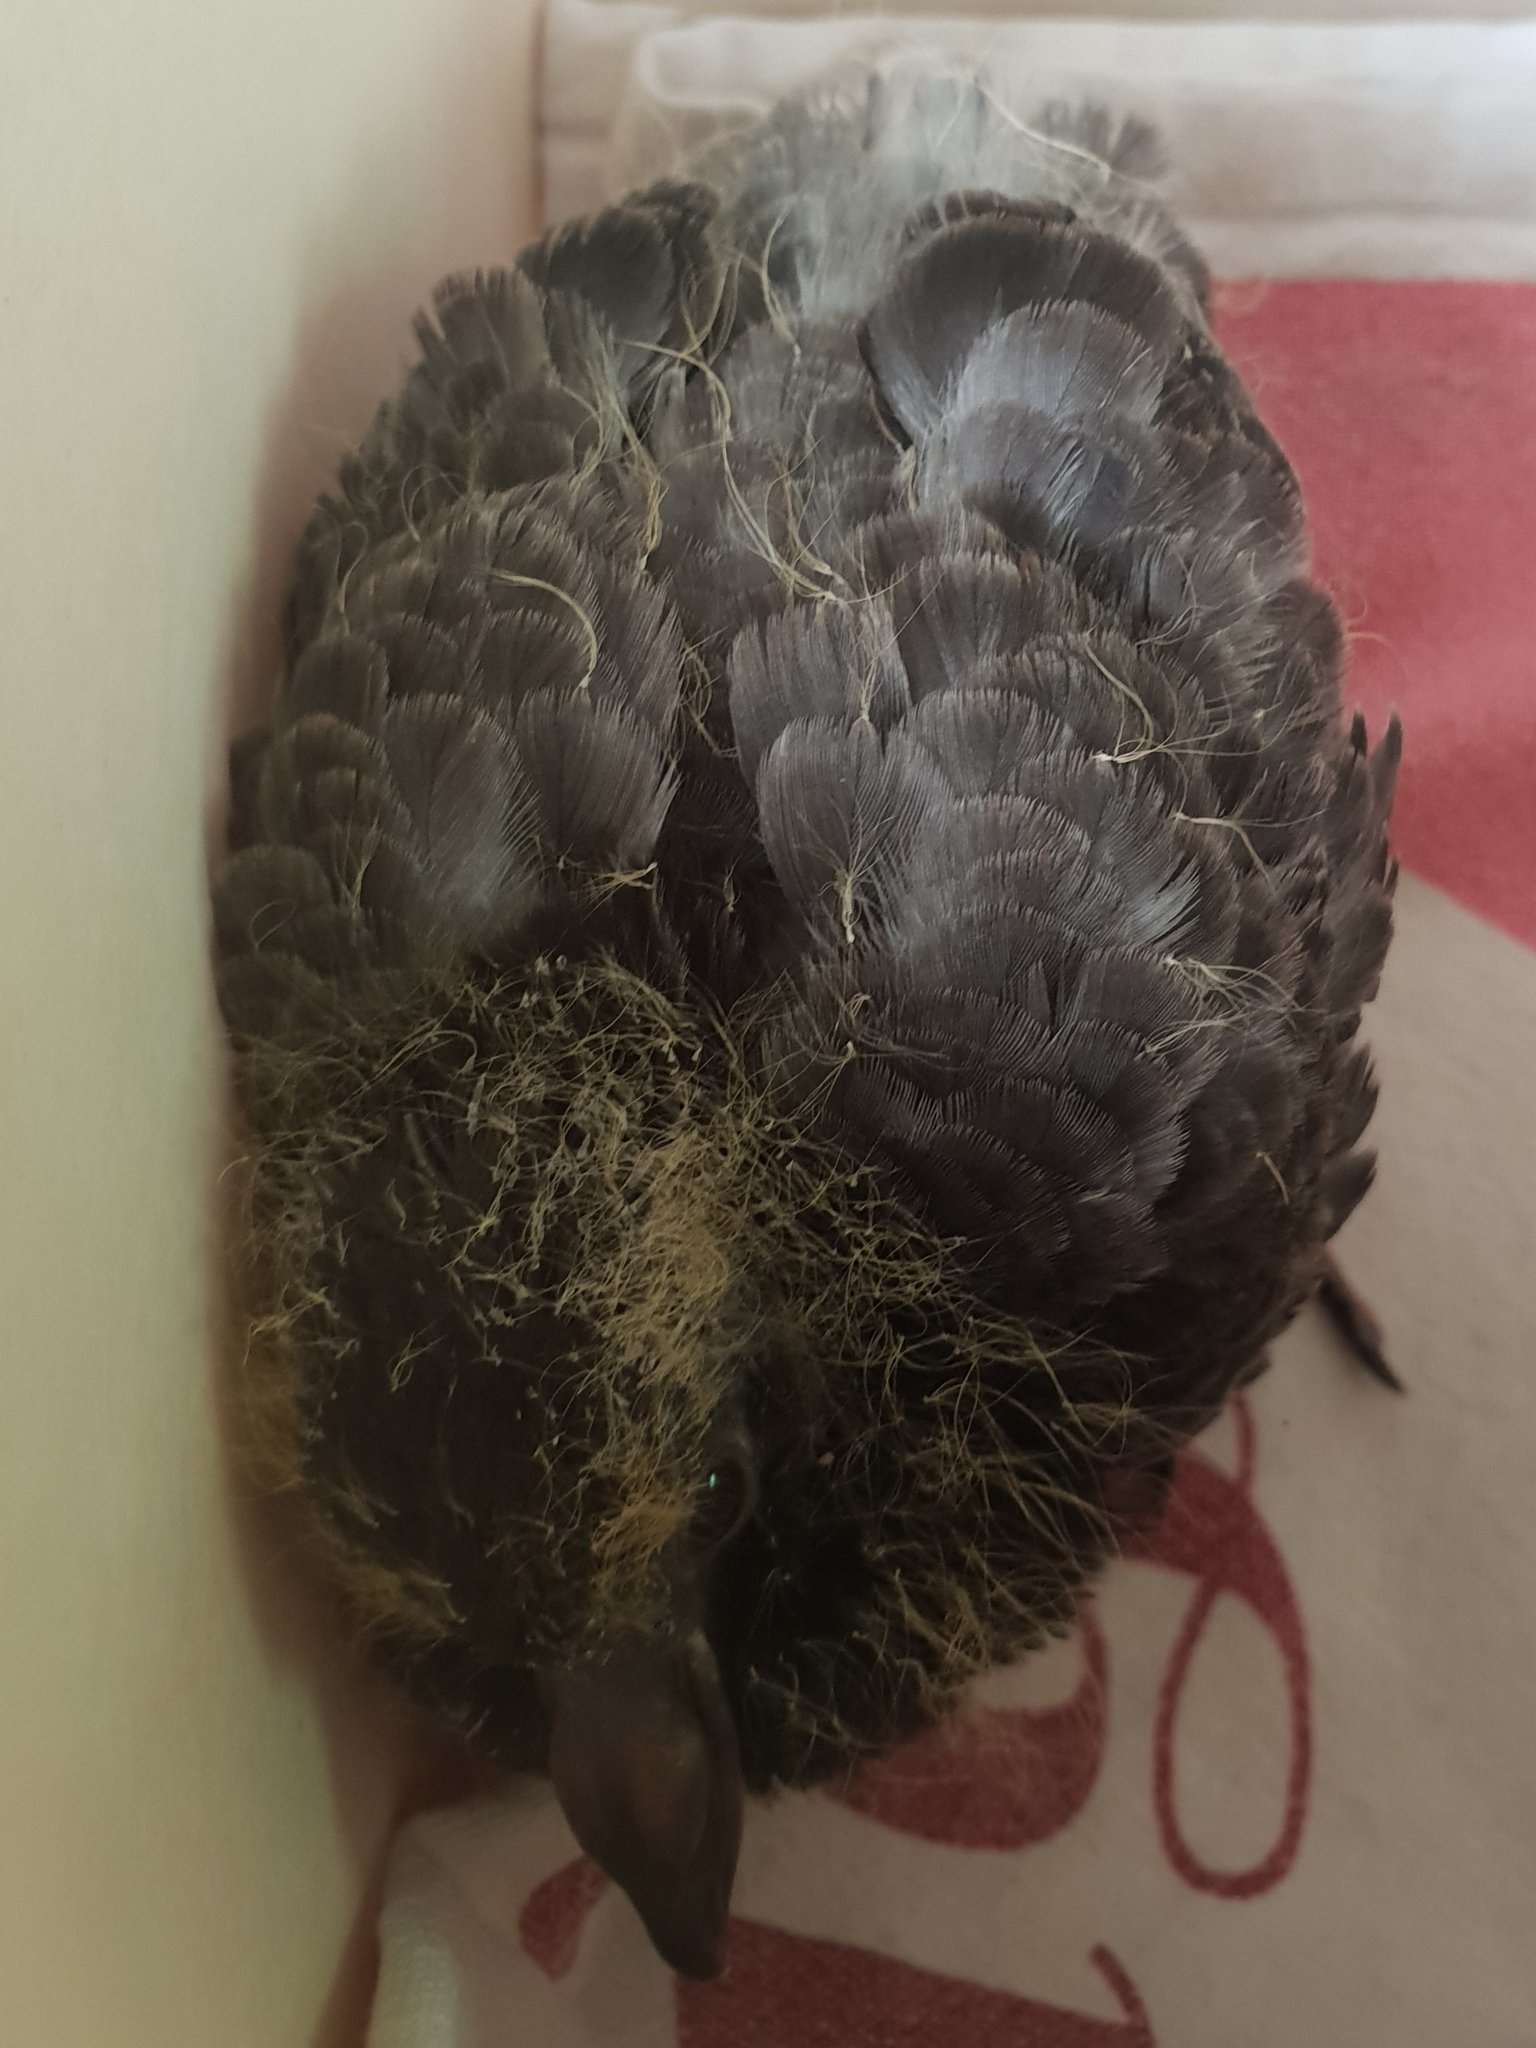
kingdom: Animalia
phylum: Chordata
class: Aves
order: Columbiformes
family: Columbidae
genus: Columba
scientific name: Columba livia
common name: Rock pigeon
